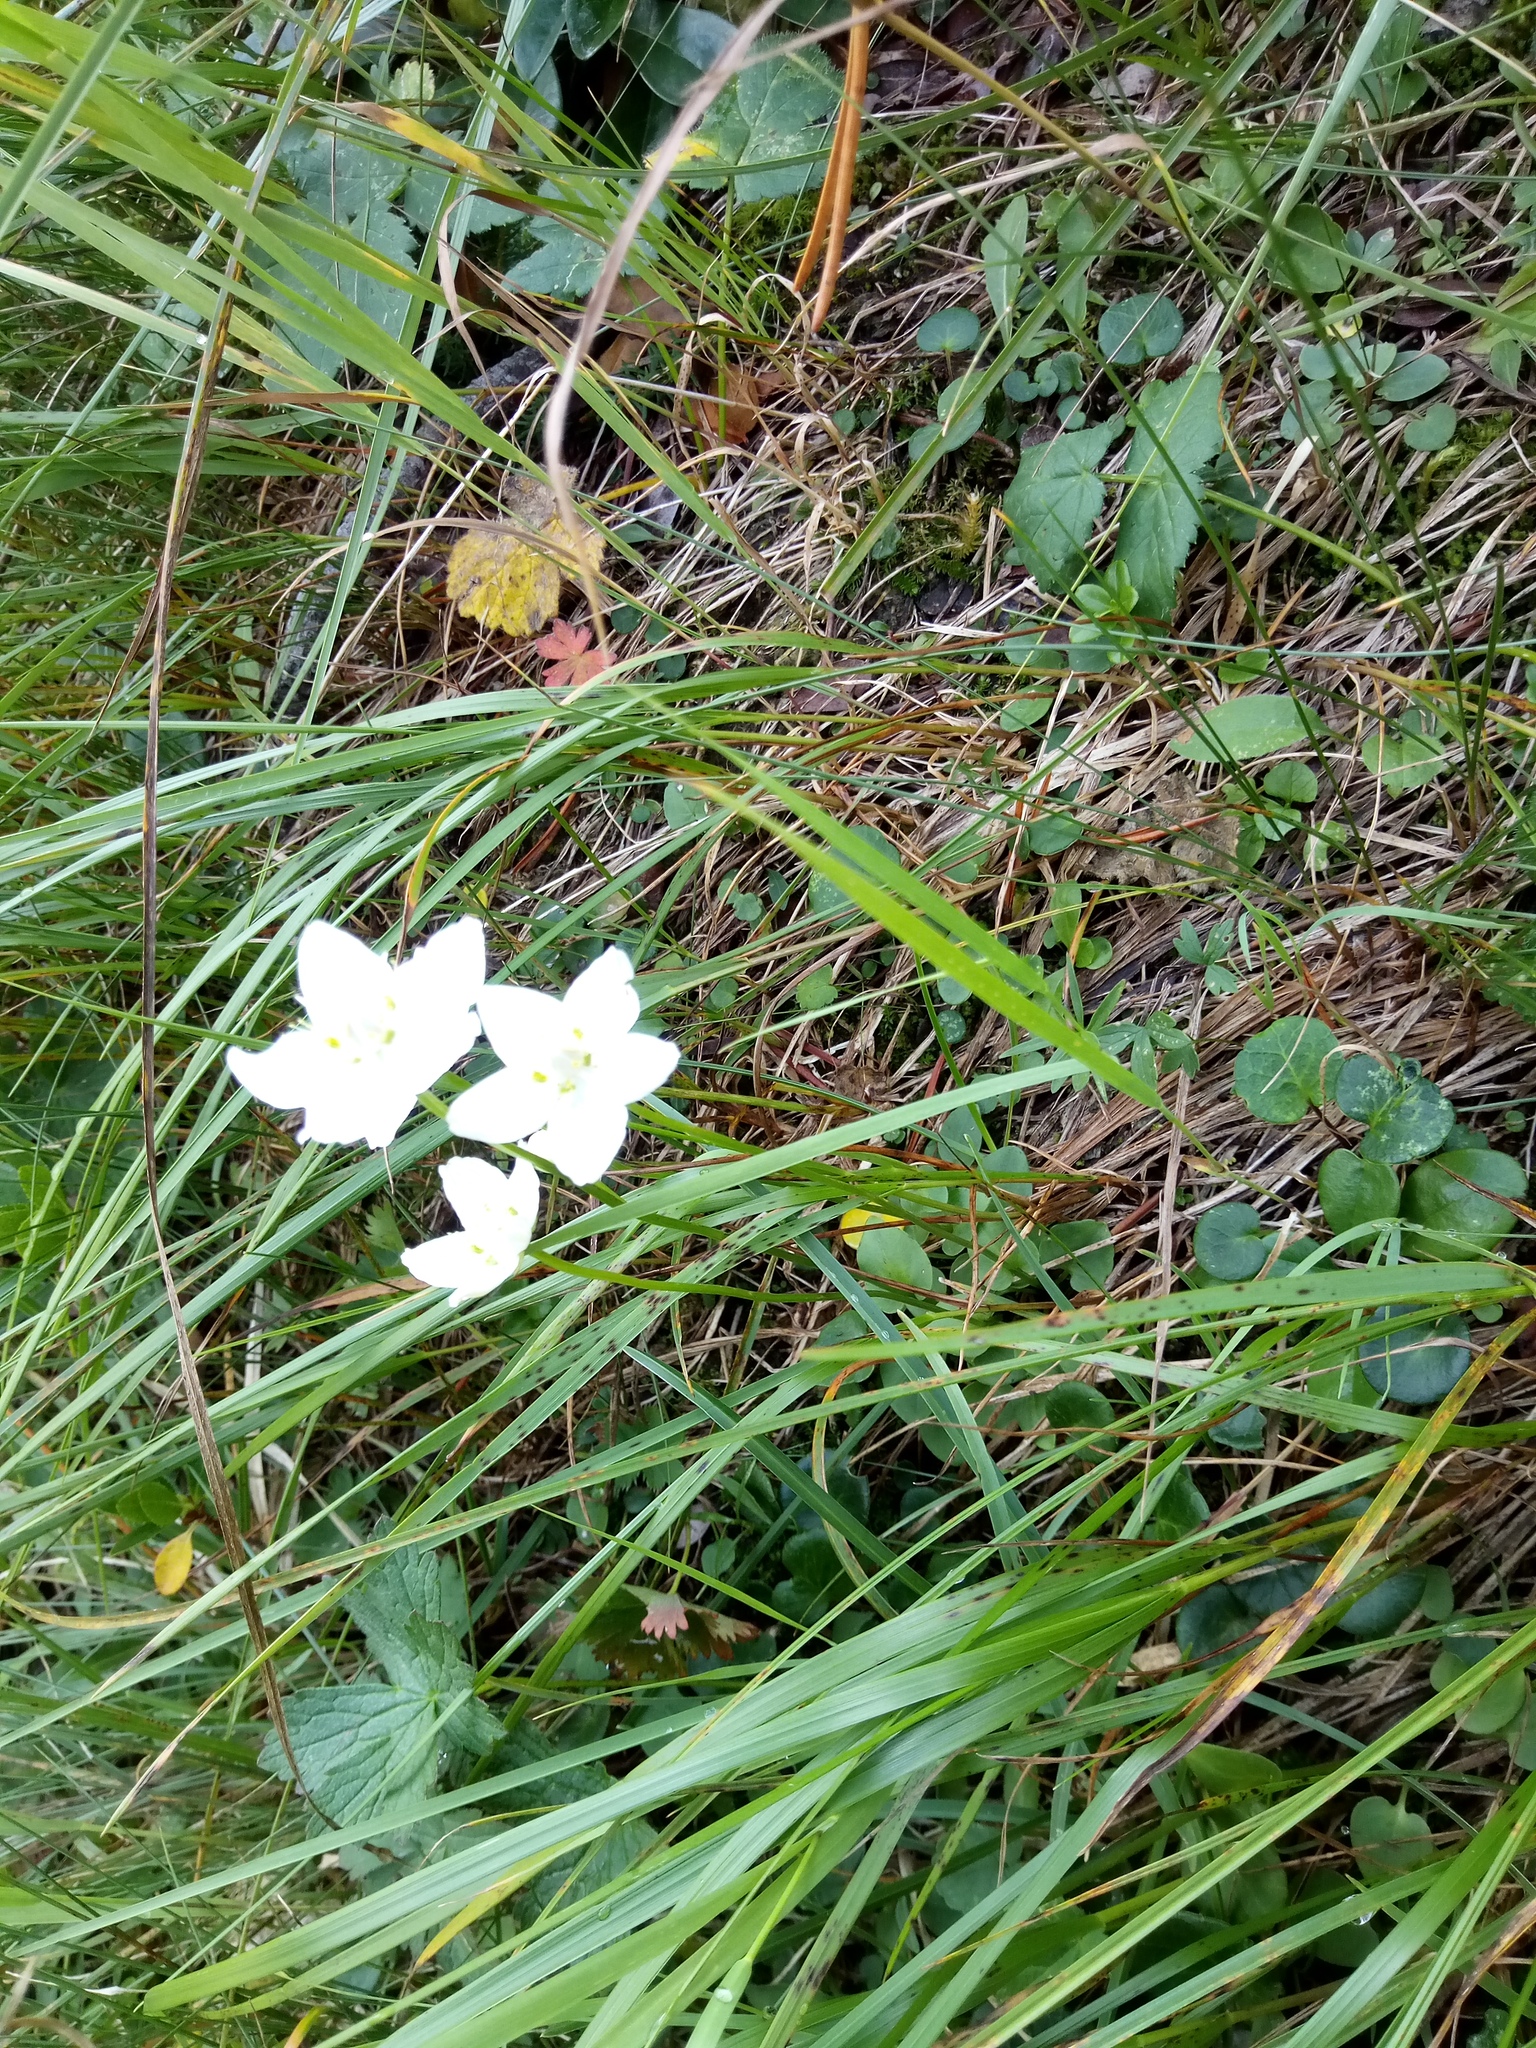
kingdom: Plantae
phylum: Tracheophyta
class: Magnoliopsida
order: Celastrales
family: Parnassiaceae
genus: Parnassia
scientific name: Parnassia palustris
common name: Grass-of-parnassus
